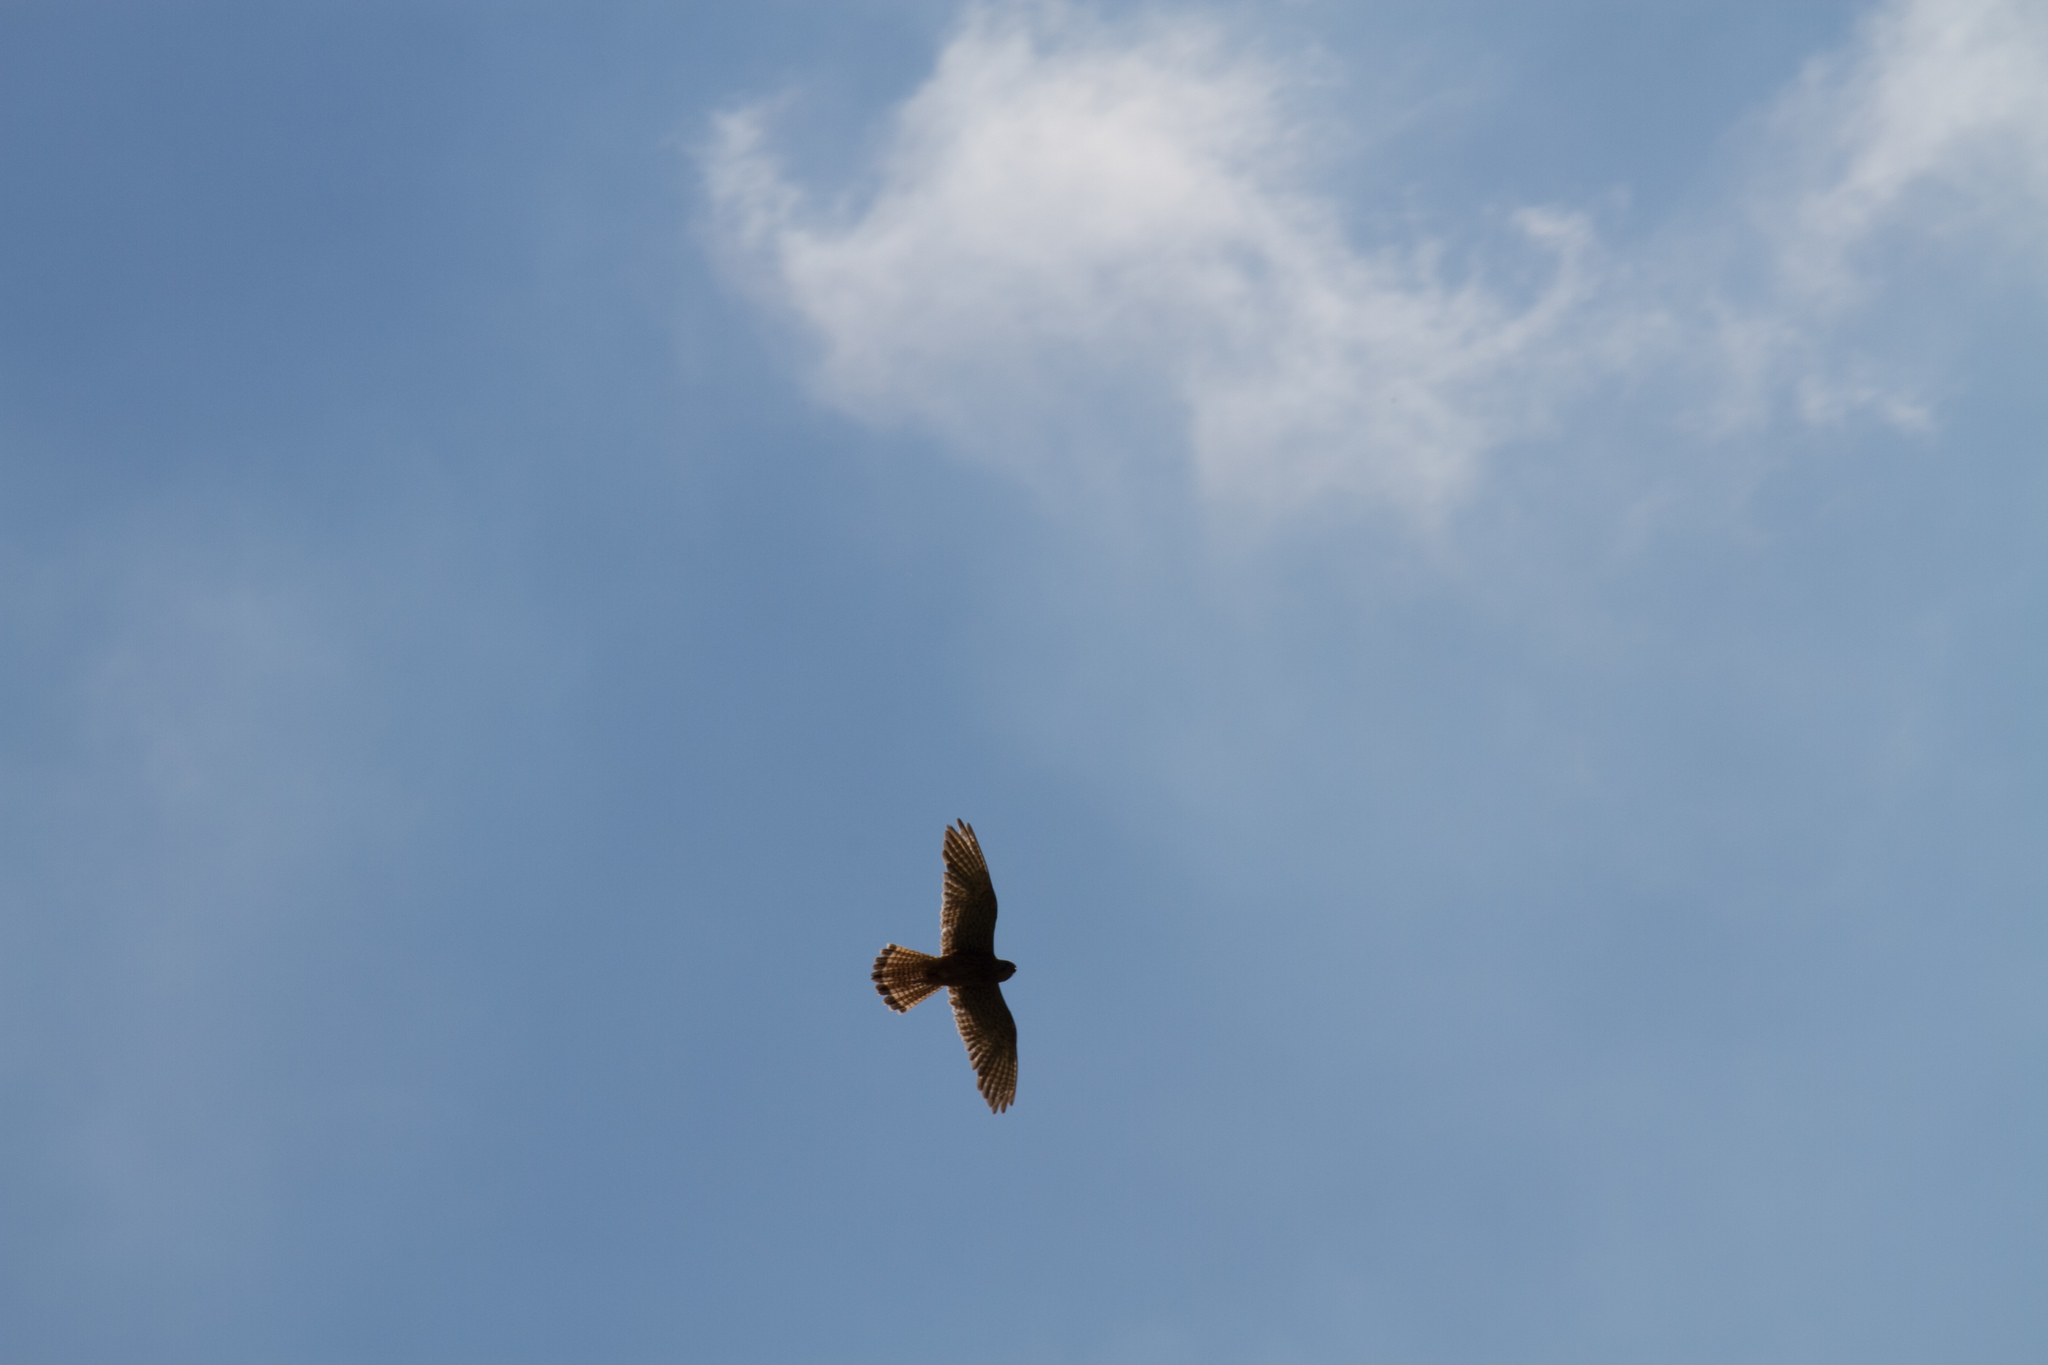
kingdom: Animalia
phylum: Chordata
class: Aves
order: Falconiformes
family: Falconidae
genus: Falco
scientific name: Falco tinnunculus
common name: Common kestrel
